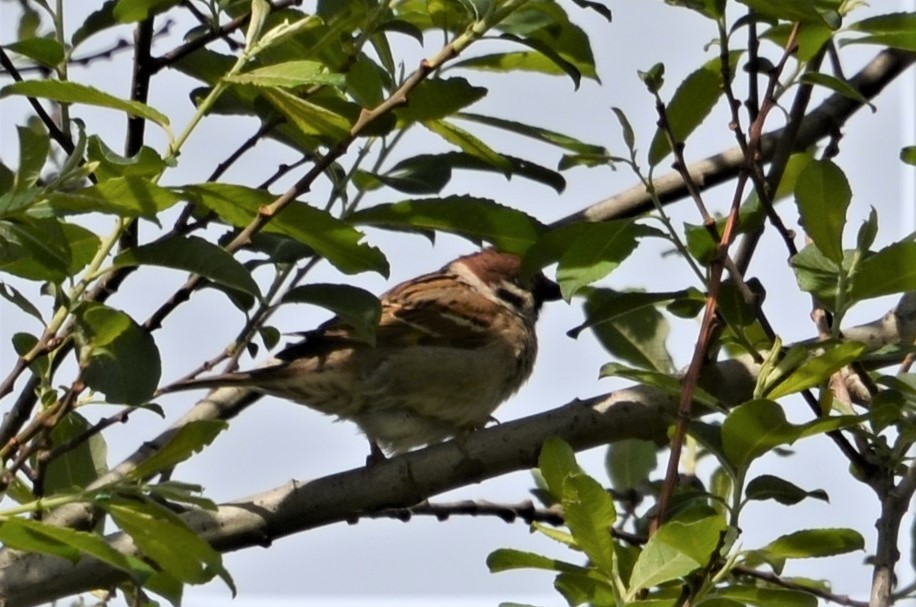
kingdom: Animalia
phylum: Chordata
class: Aves
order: Passeriformes
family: Passeridae
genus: Passer
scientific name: Passer montanus
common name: Eurasian tree sparrow
